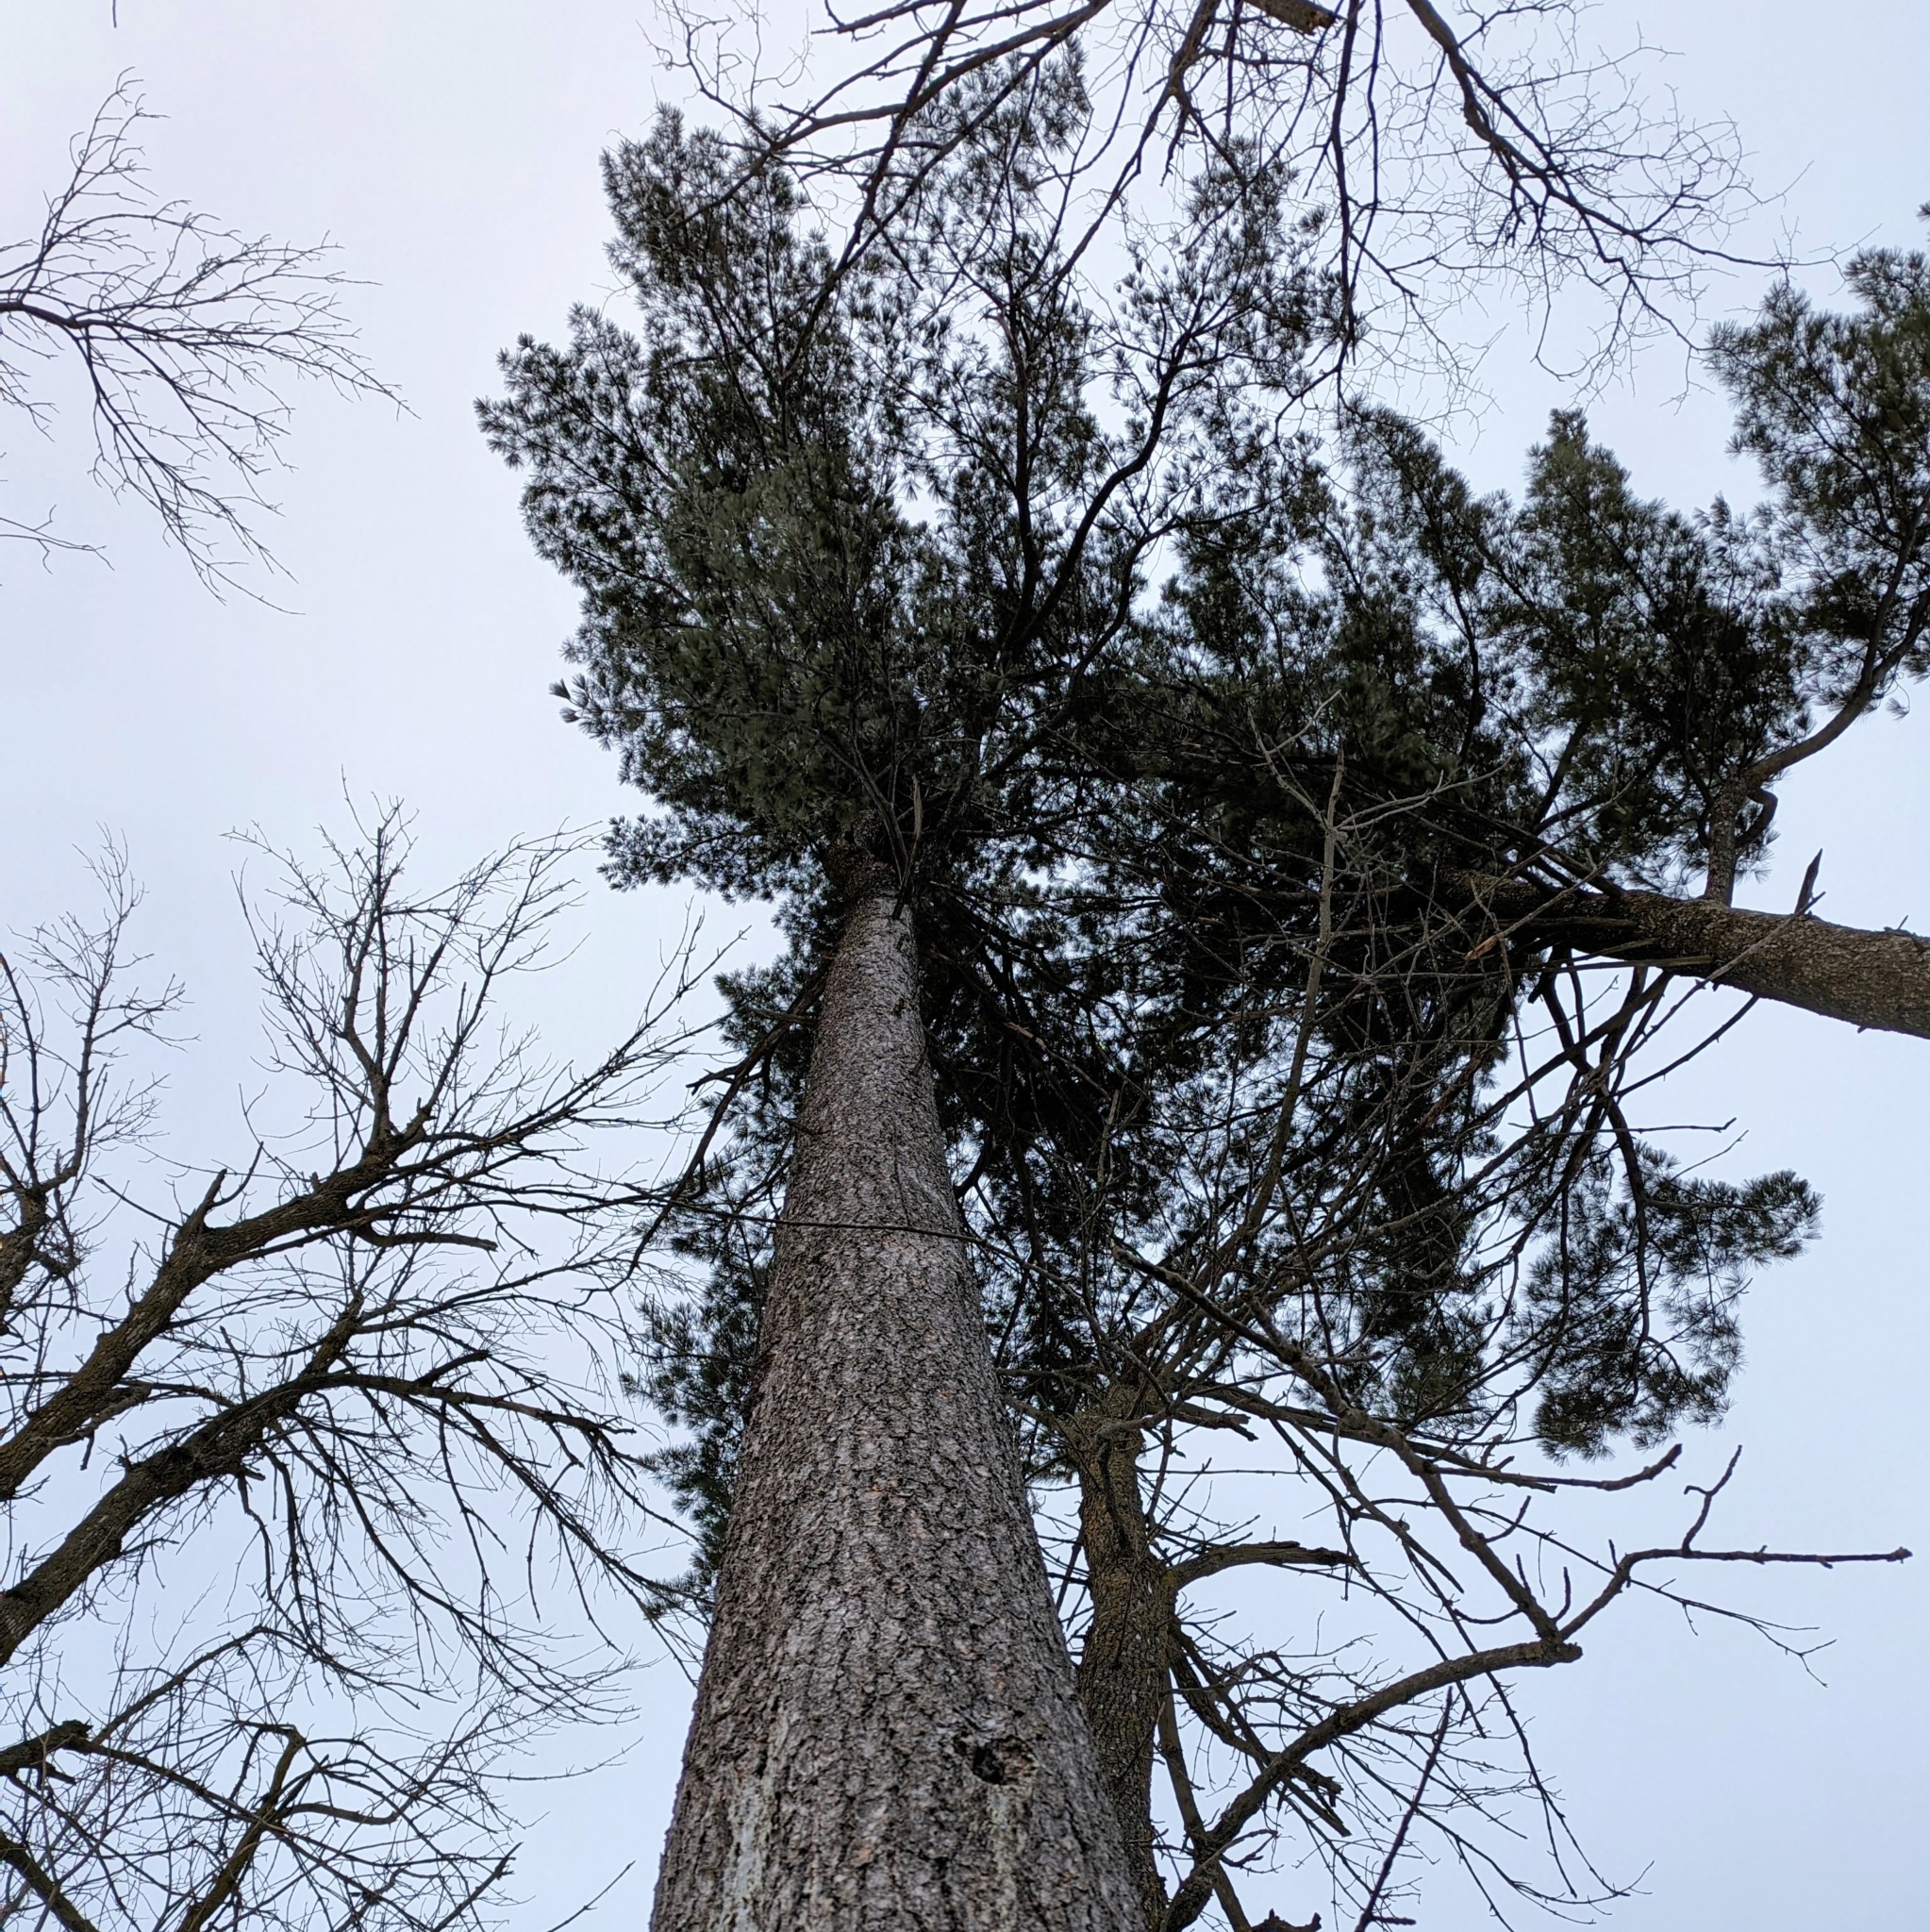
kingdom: Plantae
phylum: Tracheophyta
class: Pinopsida
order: Pinales
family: Pinaceae
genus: Pinus
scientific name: Pinus strobus
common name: Weymouth pine
